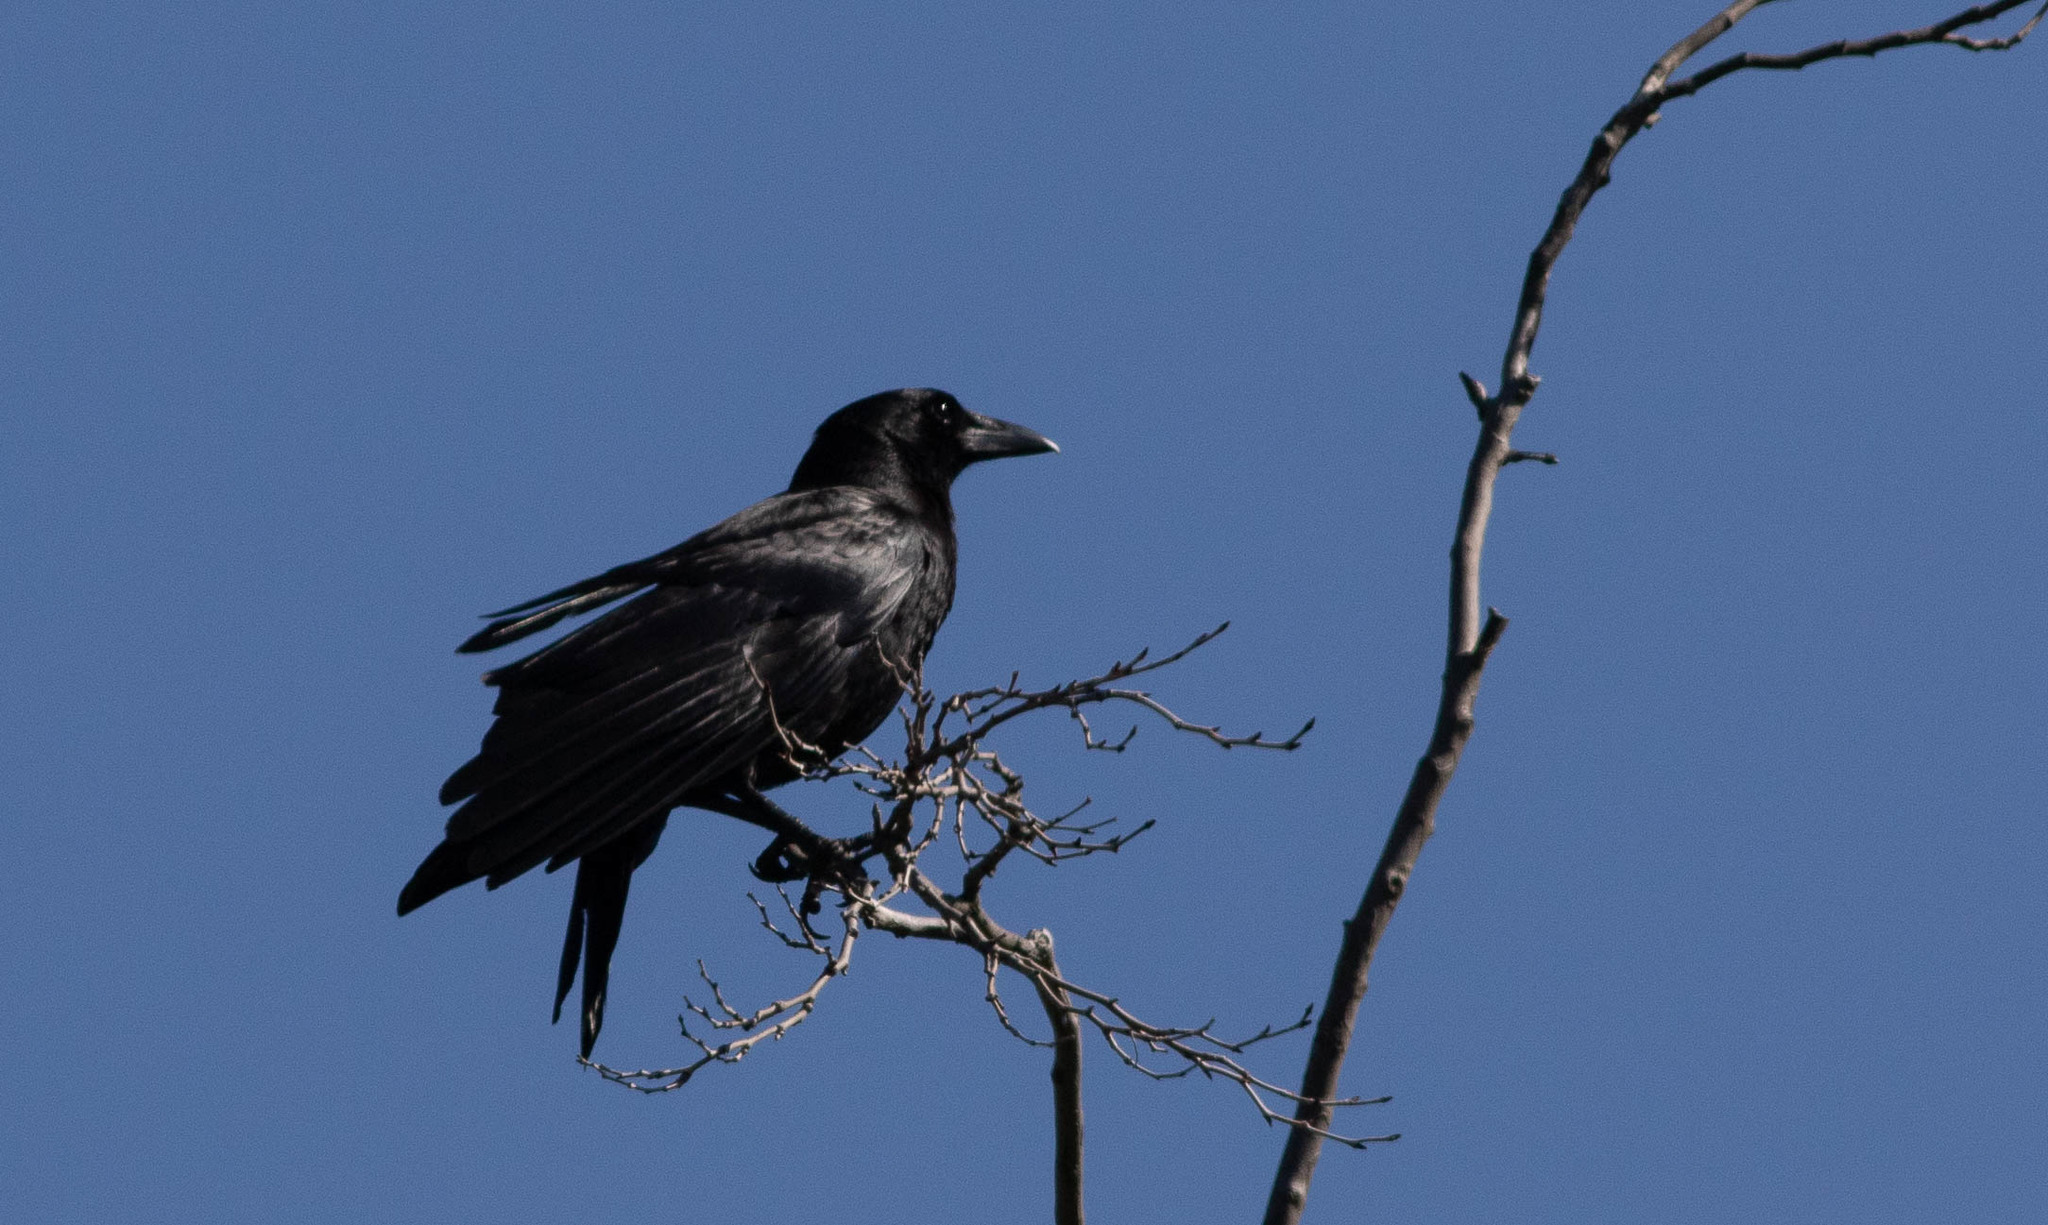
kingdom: Animalia
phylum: Chordata
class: Aves
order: Passeriformes
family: Corvidae
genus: Corvus
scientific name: Corvus brachyrhynchos
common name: American crow
